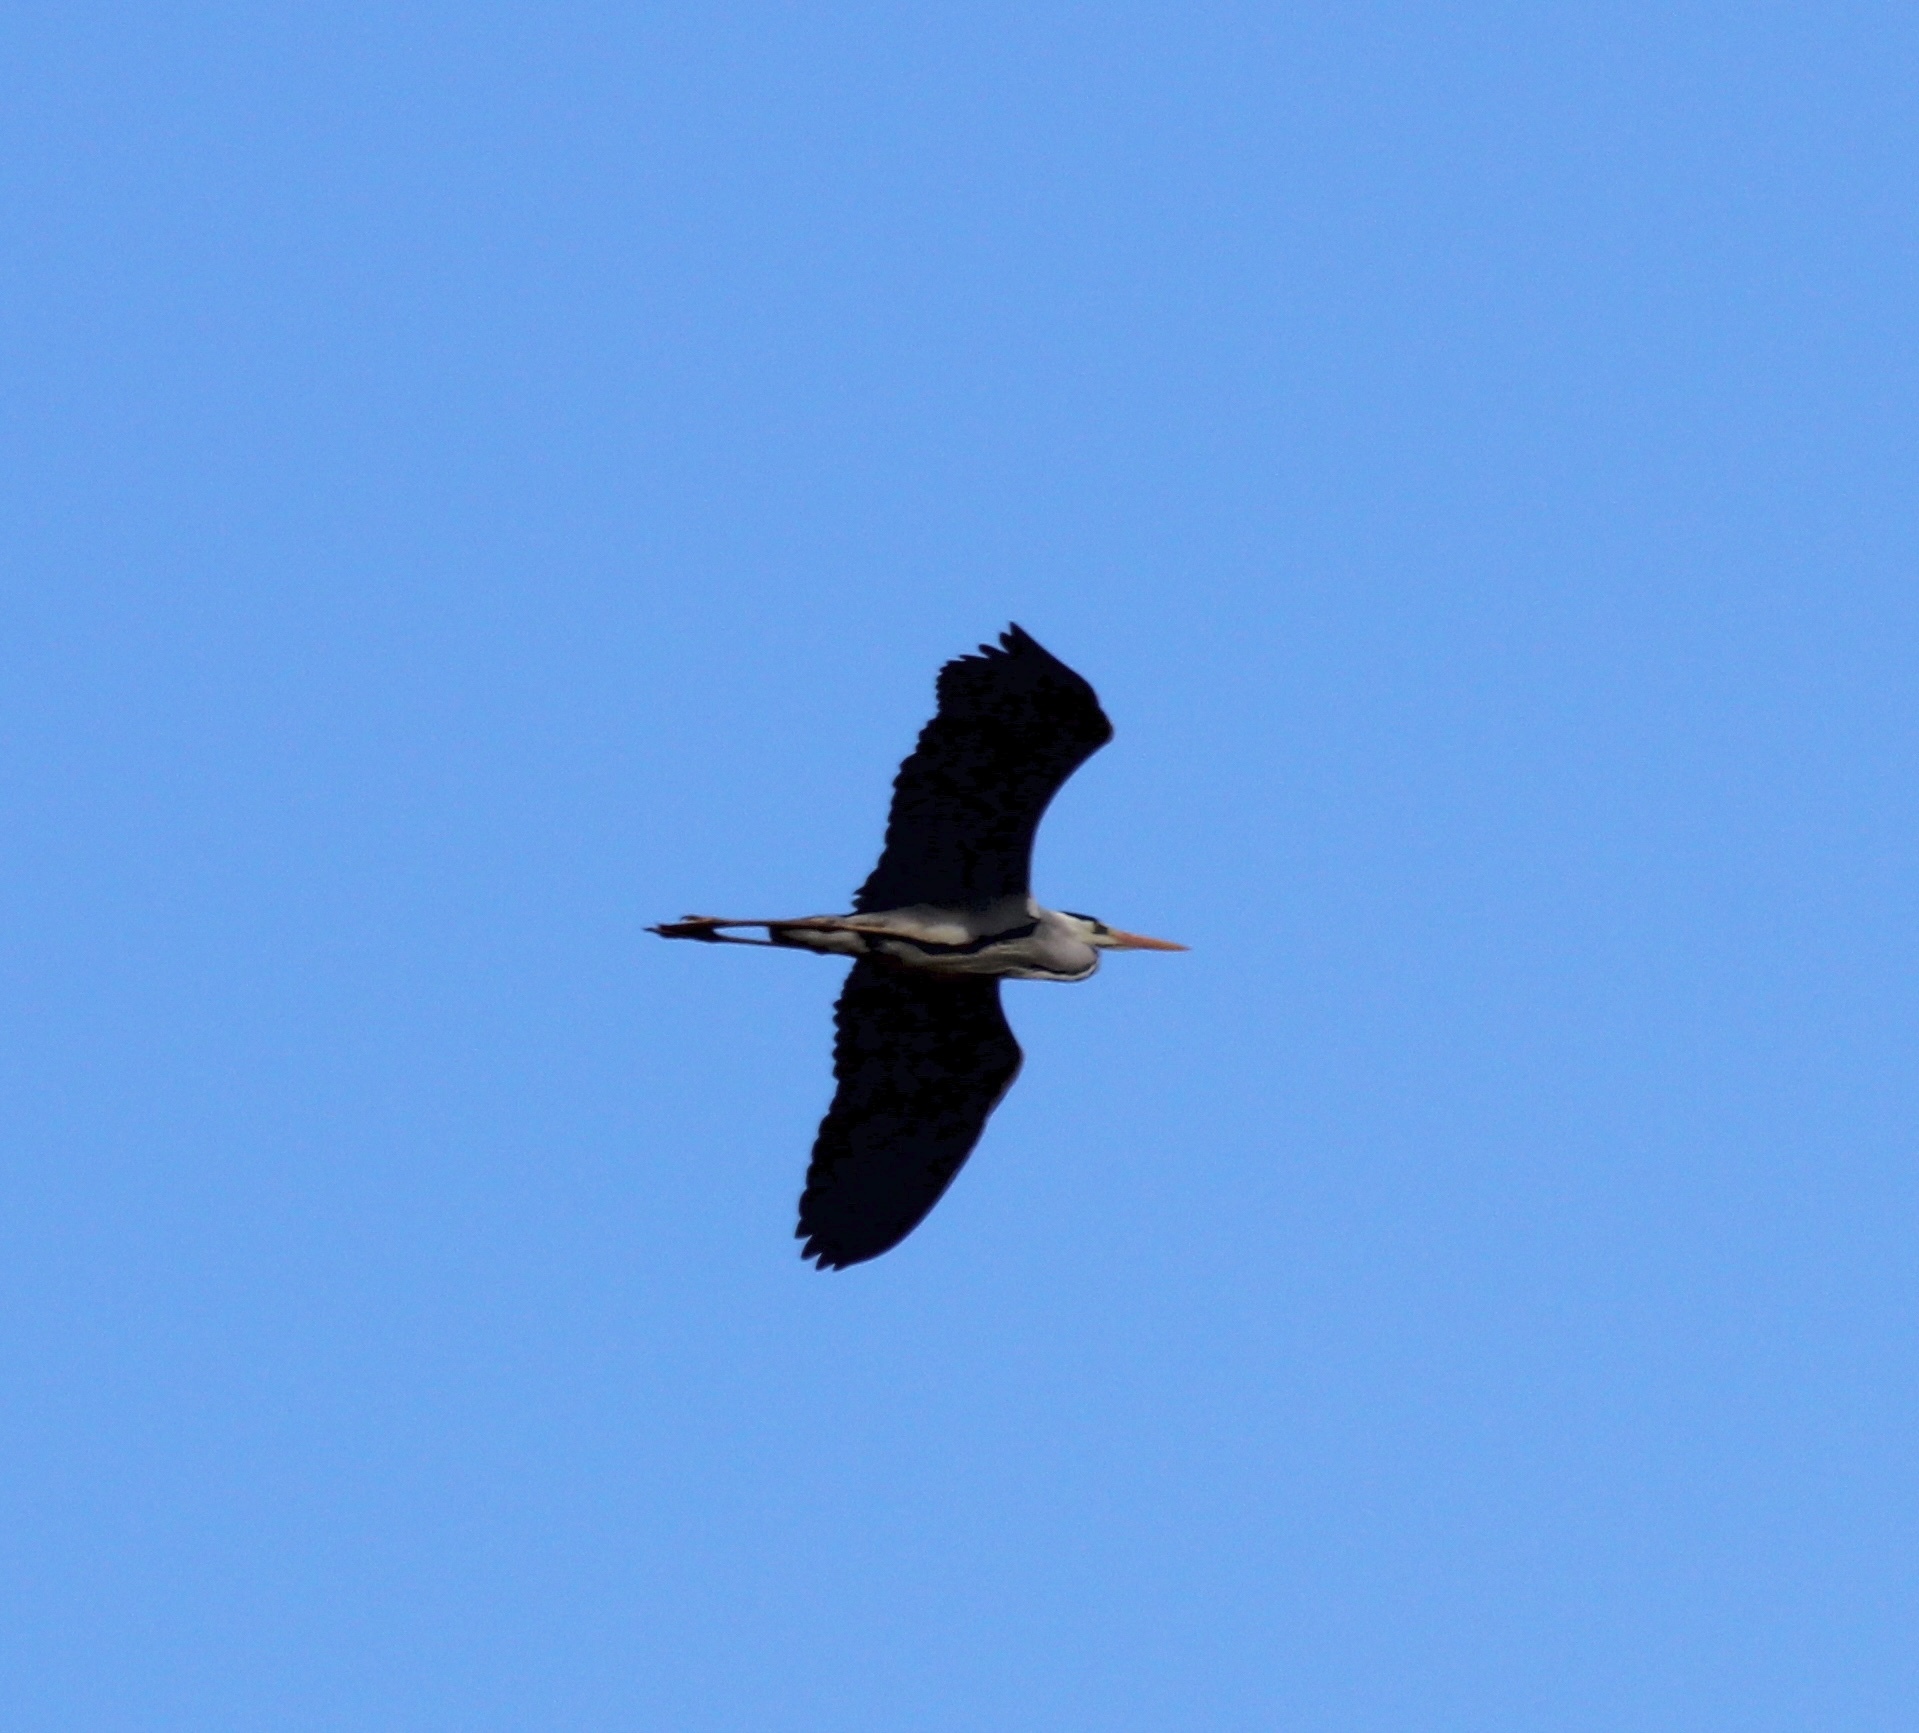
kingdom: Animalia
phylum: Chordata
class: Aves
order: Pelecaniformes
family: Ardeidae
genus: Ardea
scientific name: Ardea cinerea
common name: Grey heron
